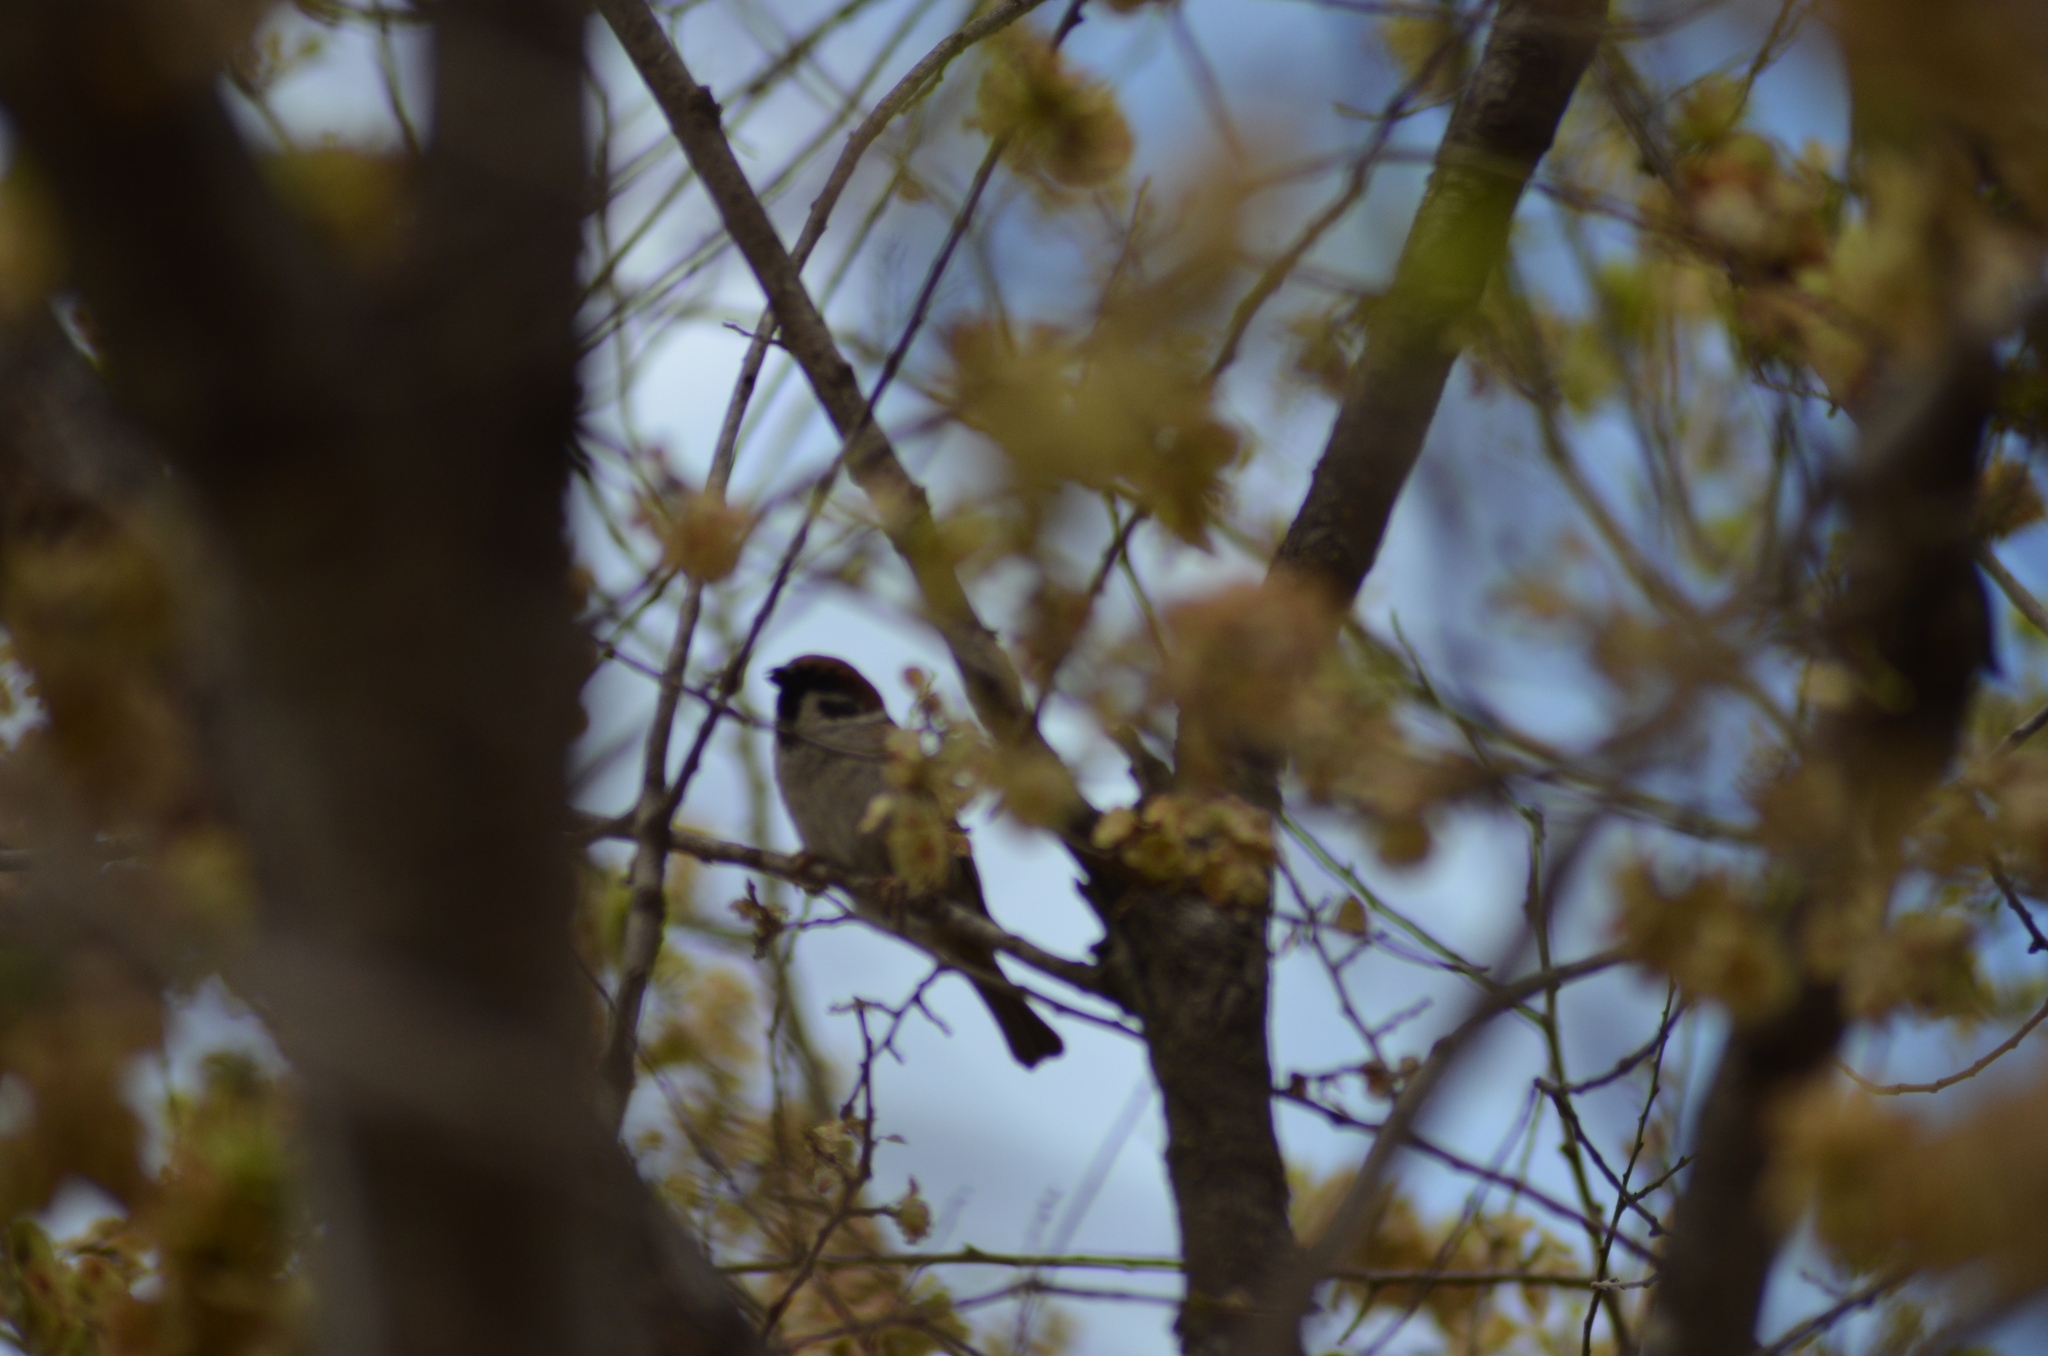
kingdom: Animalia
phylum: Chordata
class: Aves
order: Passeriformes
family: Passeridae
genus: Passer
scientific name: Passer montanus
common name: Eurasian tree sparrow
